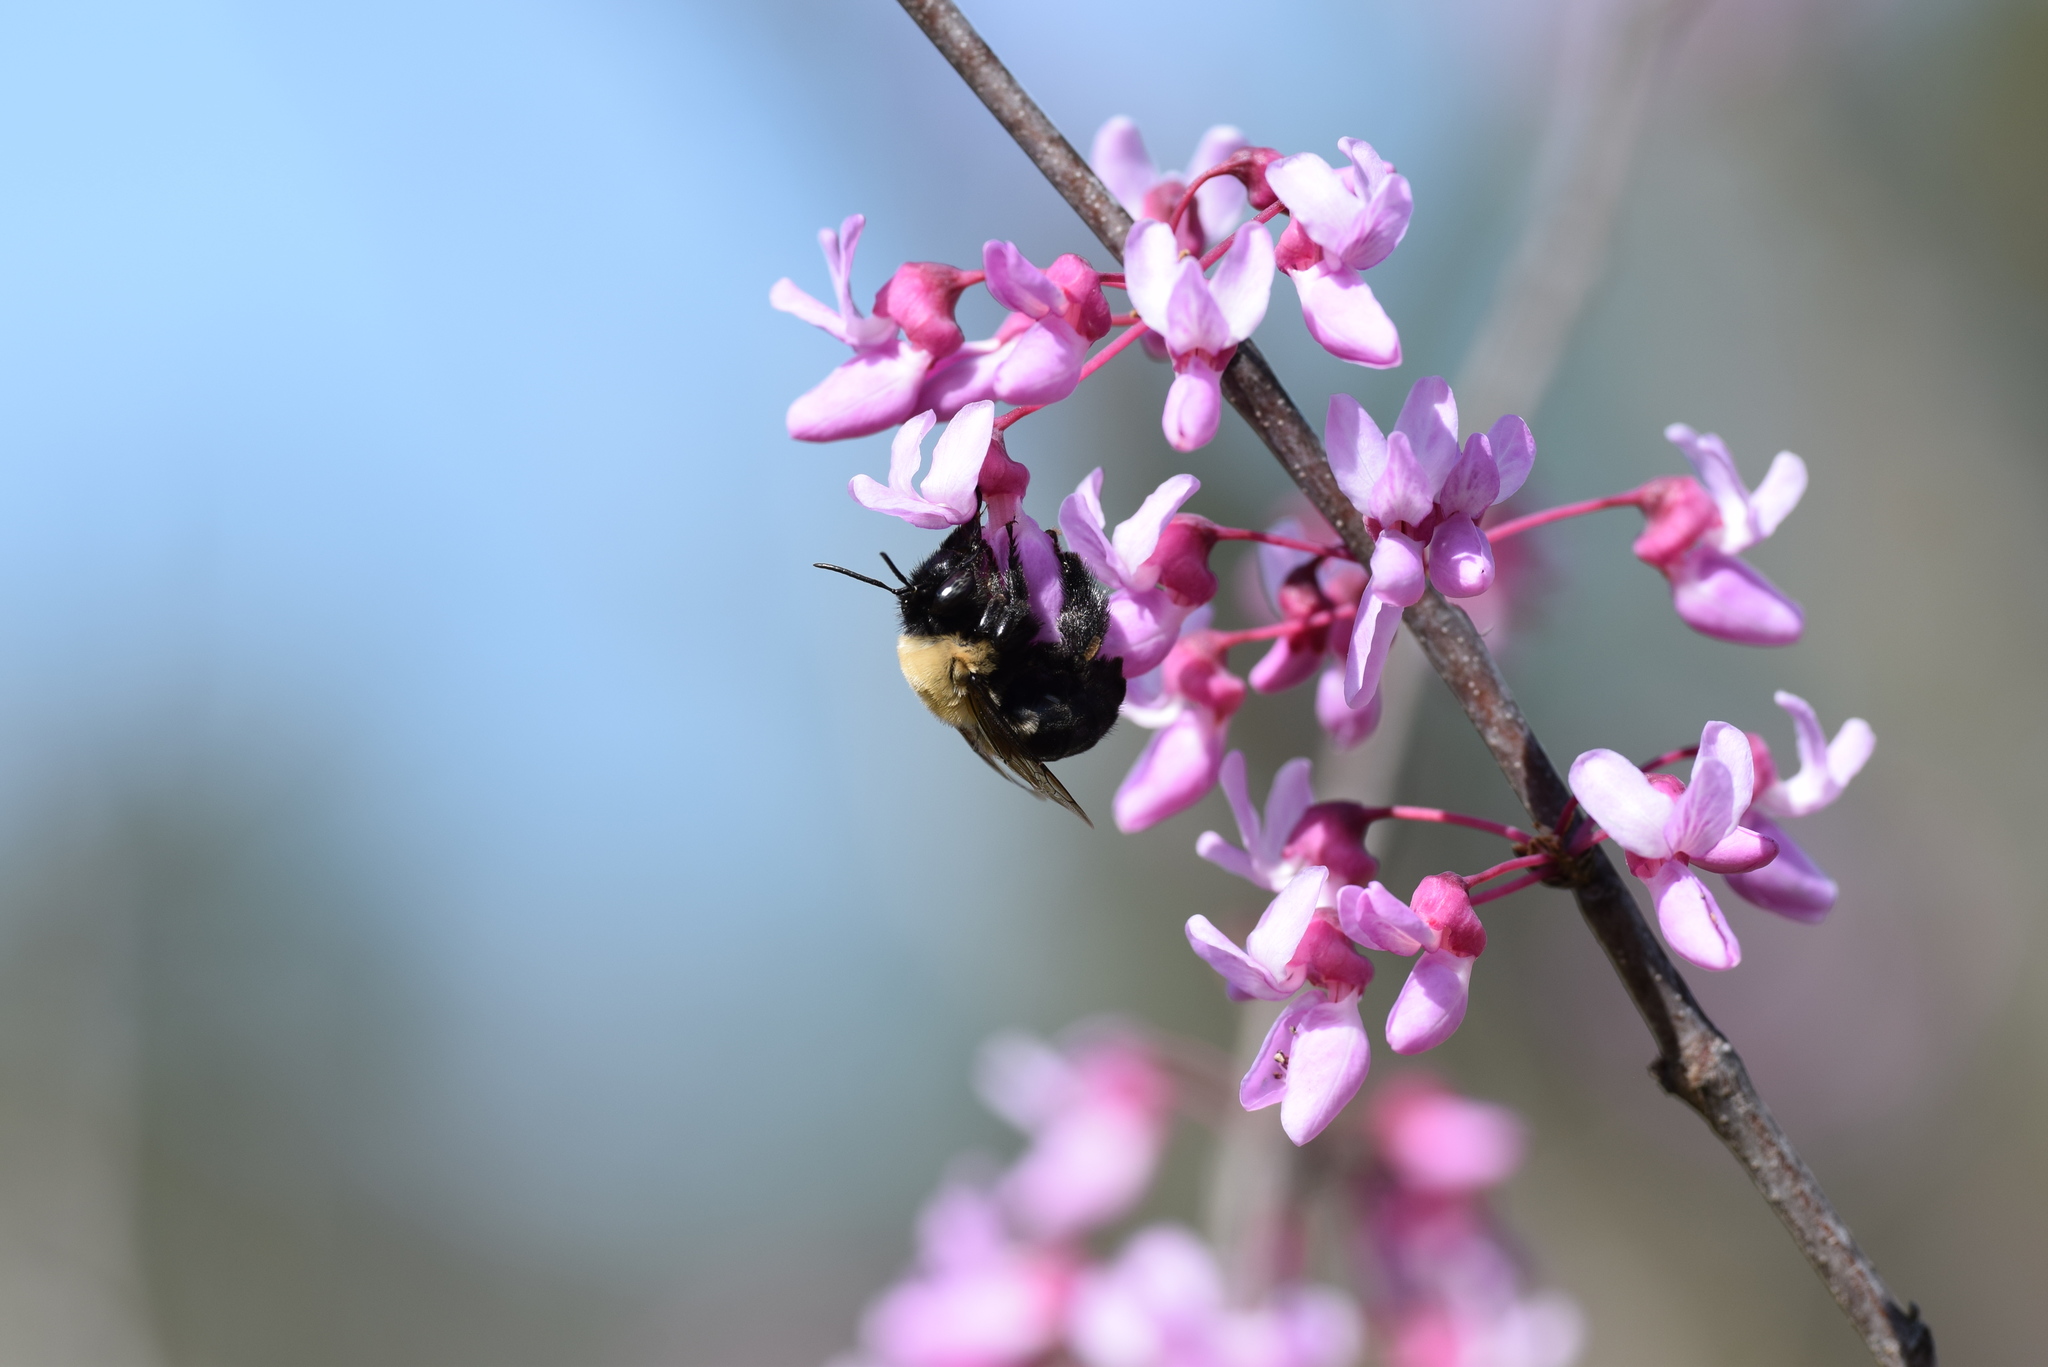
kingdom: Animalia
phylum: Arthropoda
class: Insecta
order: Hymenoptera
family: Apidae
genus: Habropoda
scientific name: Habropoda laboriosa
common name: Southeastern blueberry bee
